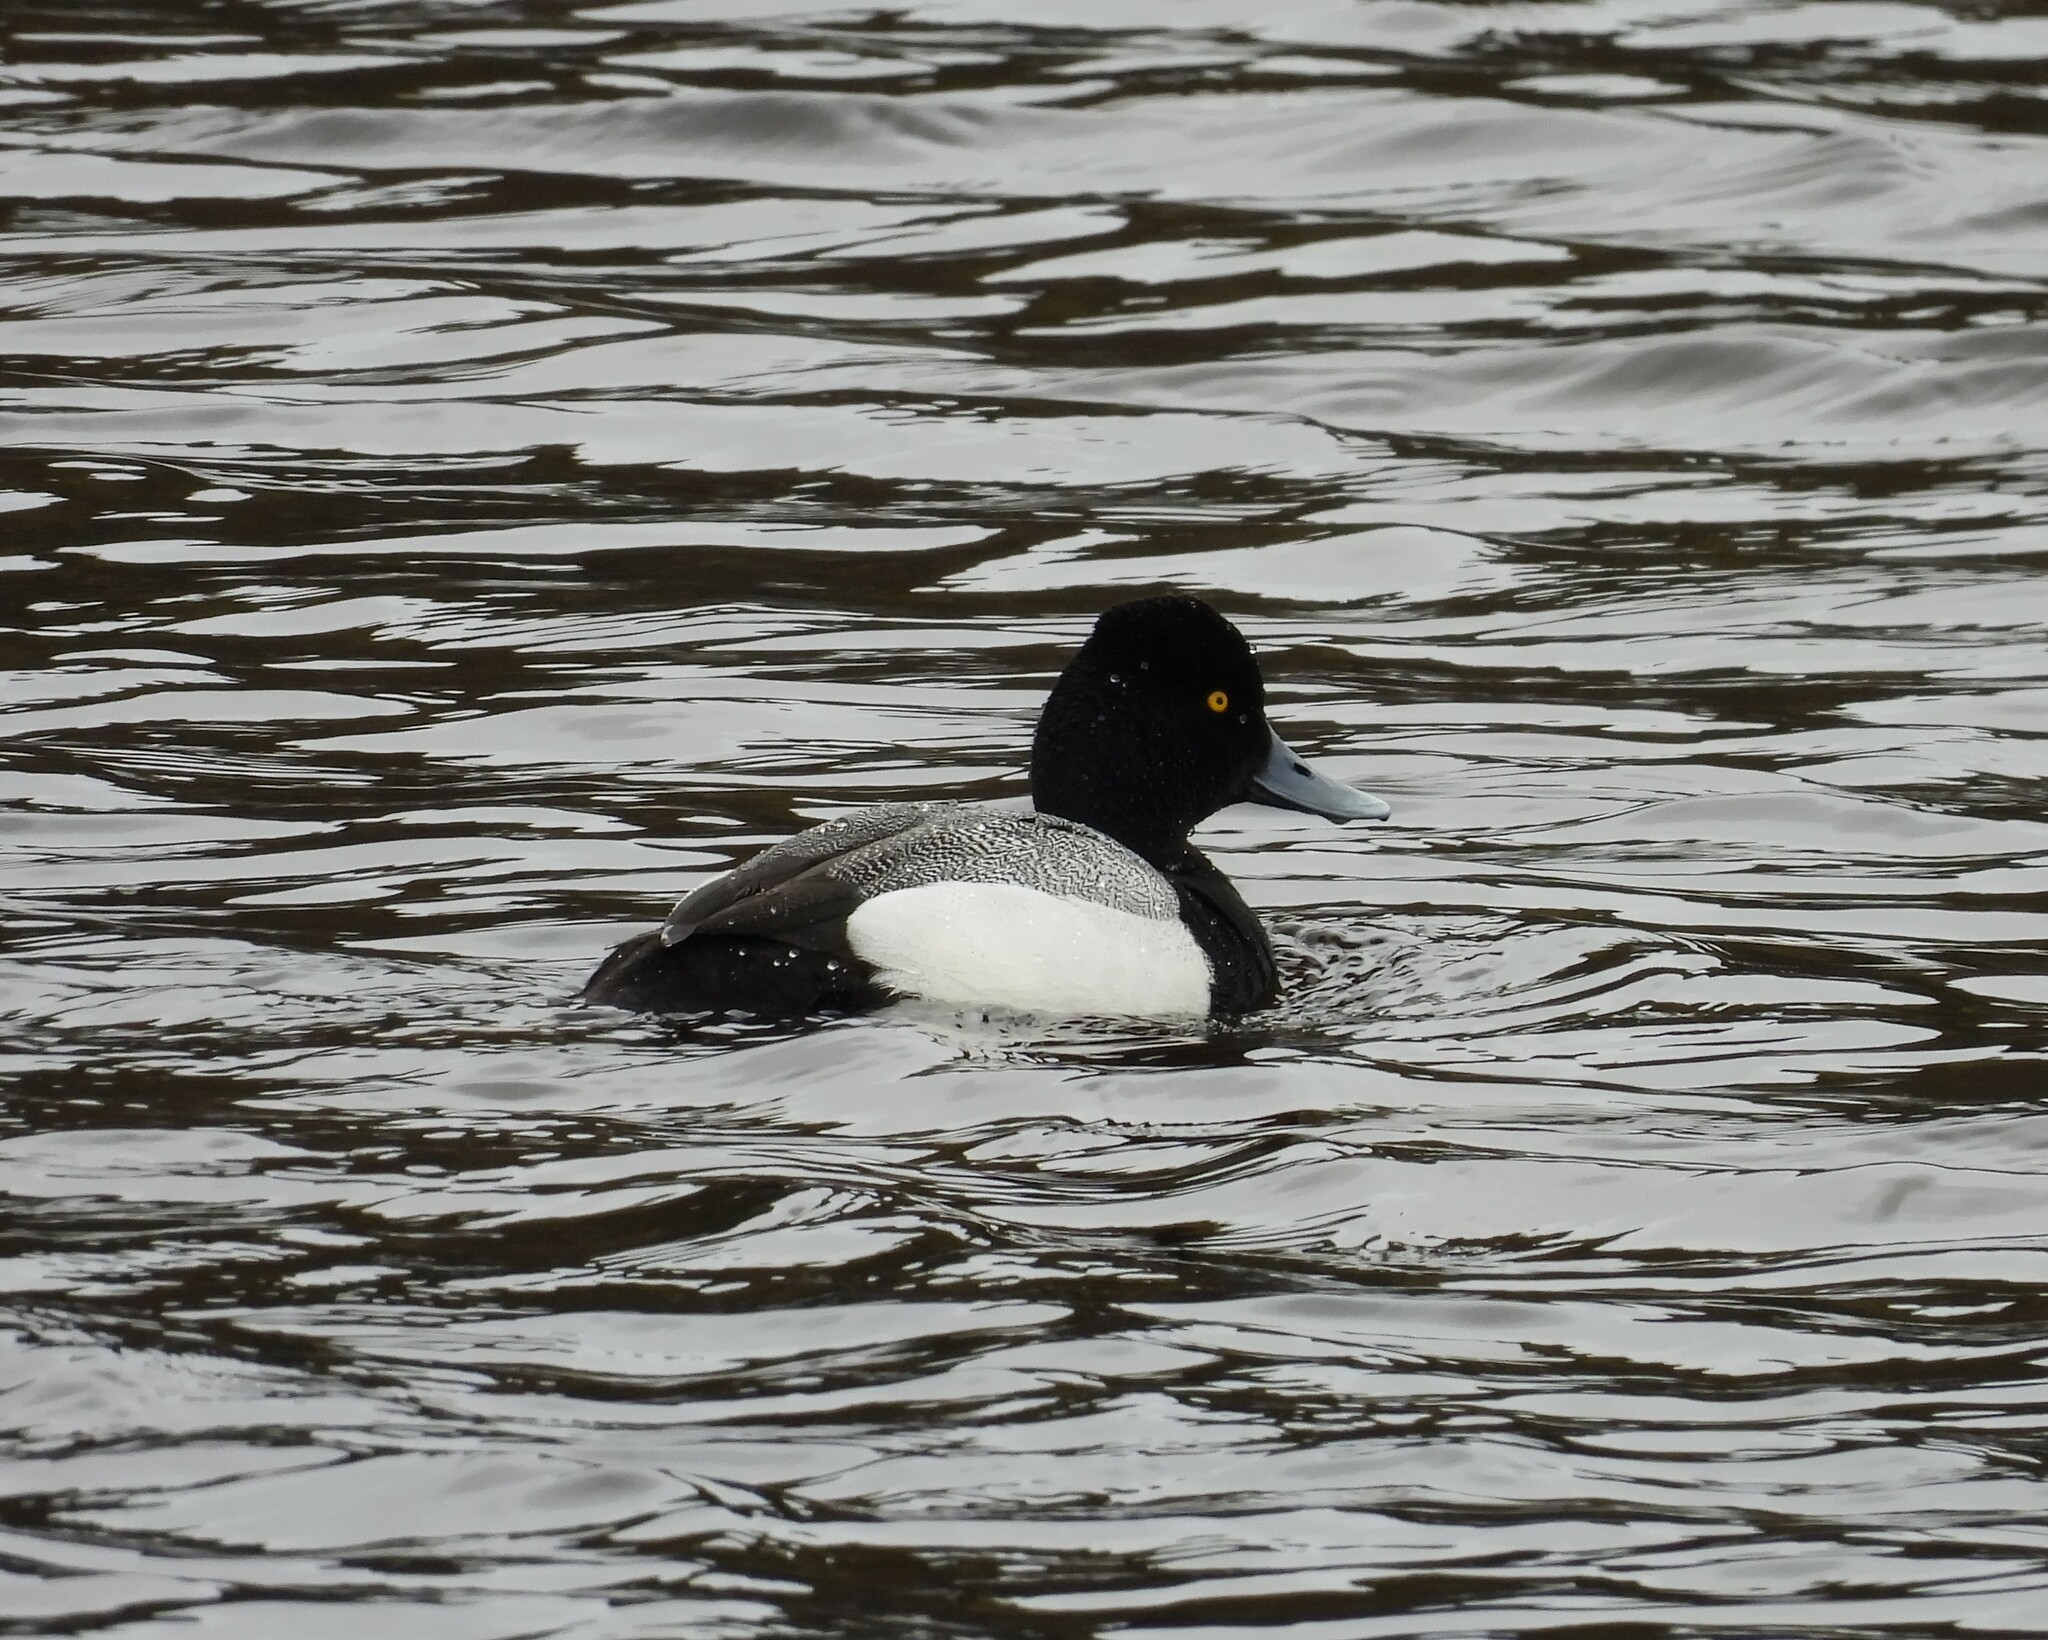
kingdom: Animalia
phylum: Chordata
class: Aves
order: Anseriformes
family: Anatidae
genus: Aythya
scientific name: Aythya affinis
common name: Lesser scaup
